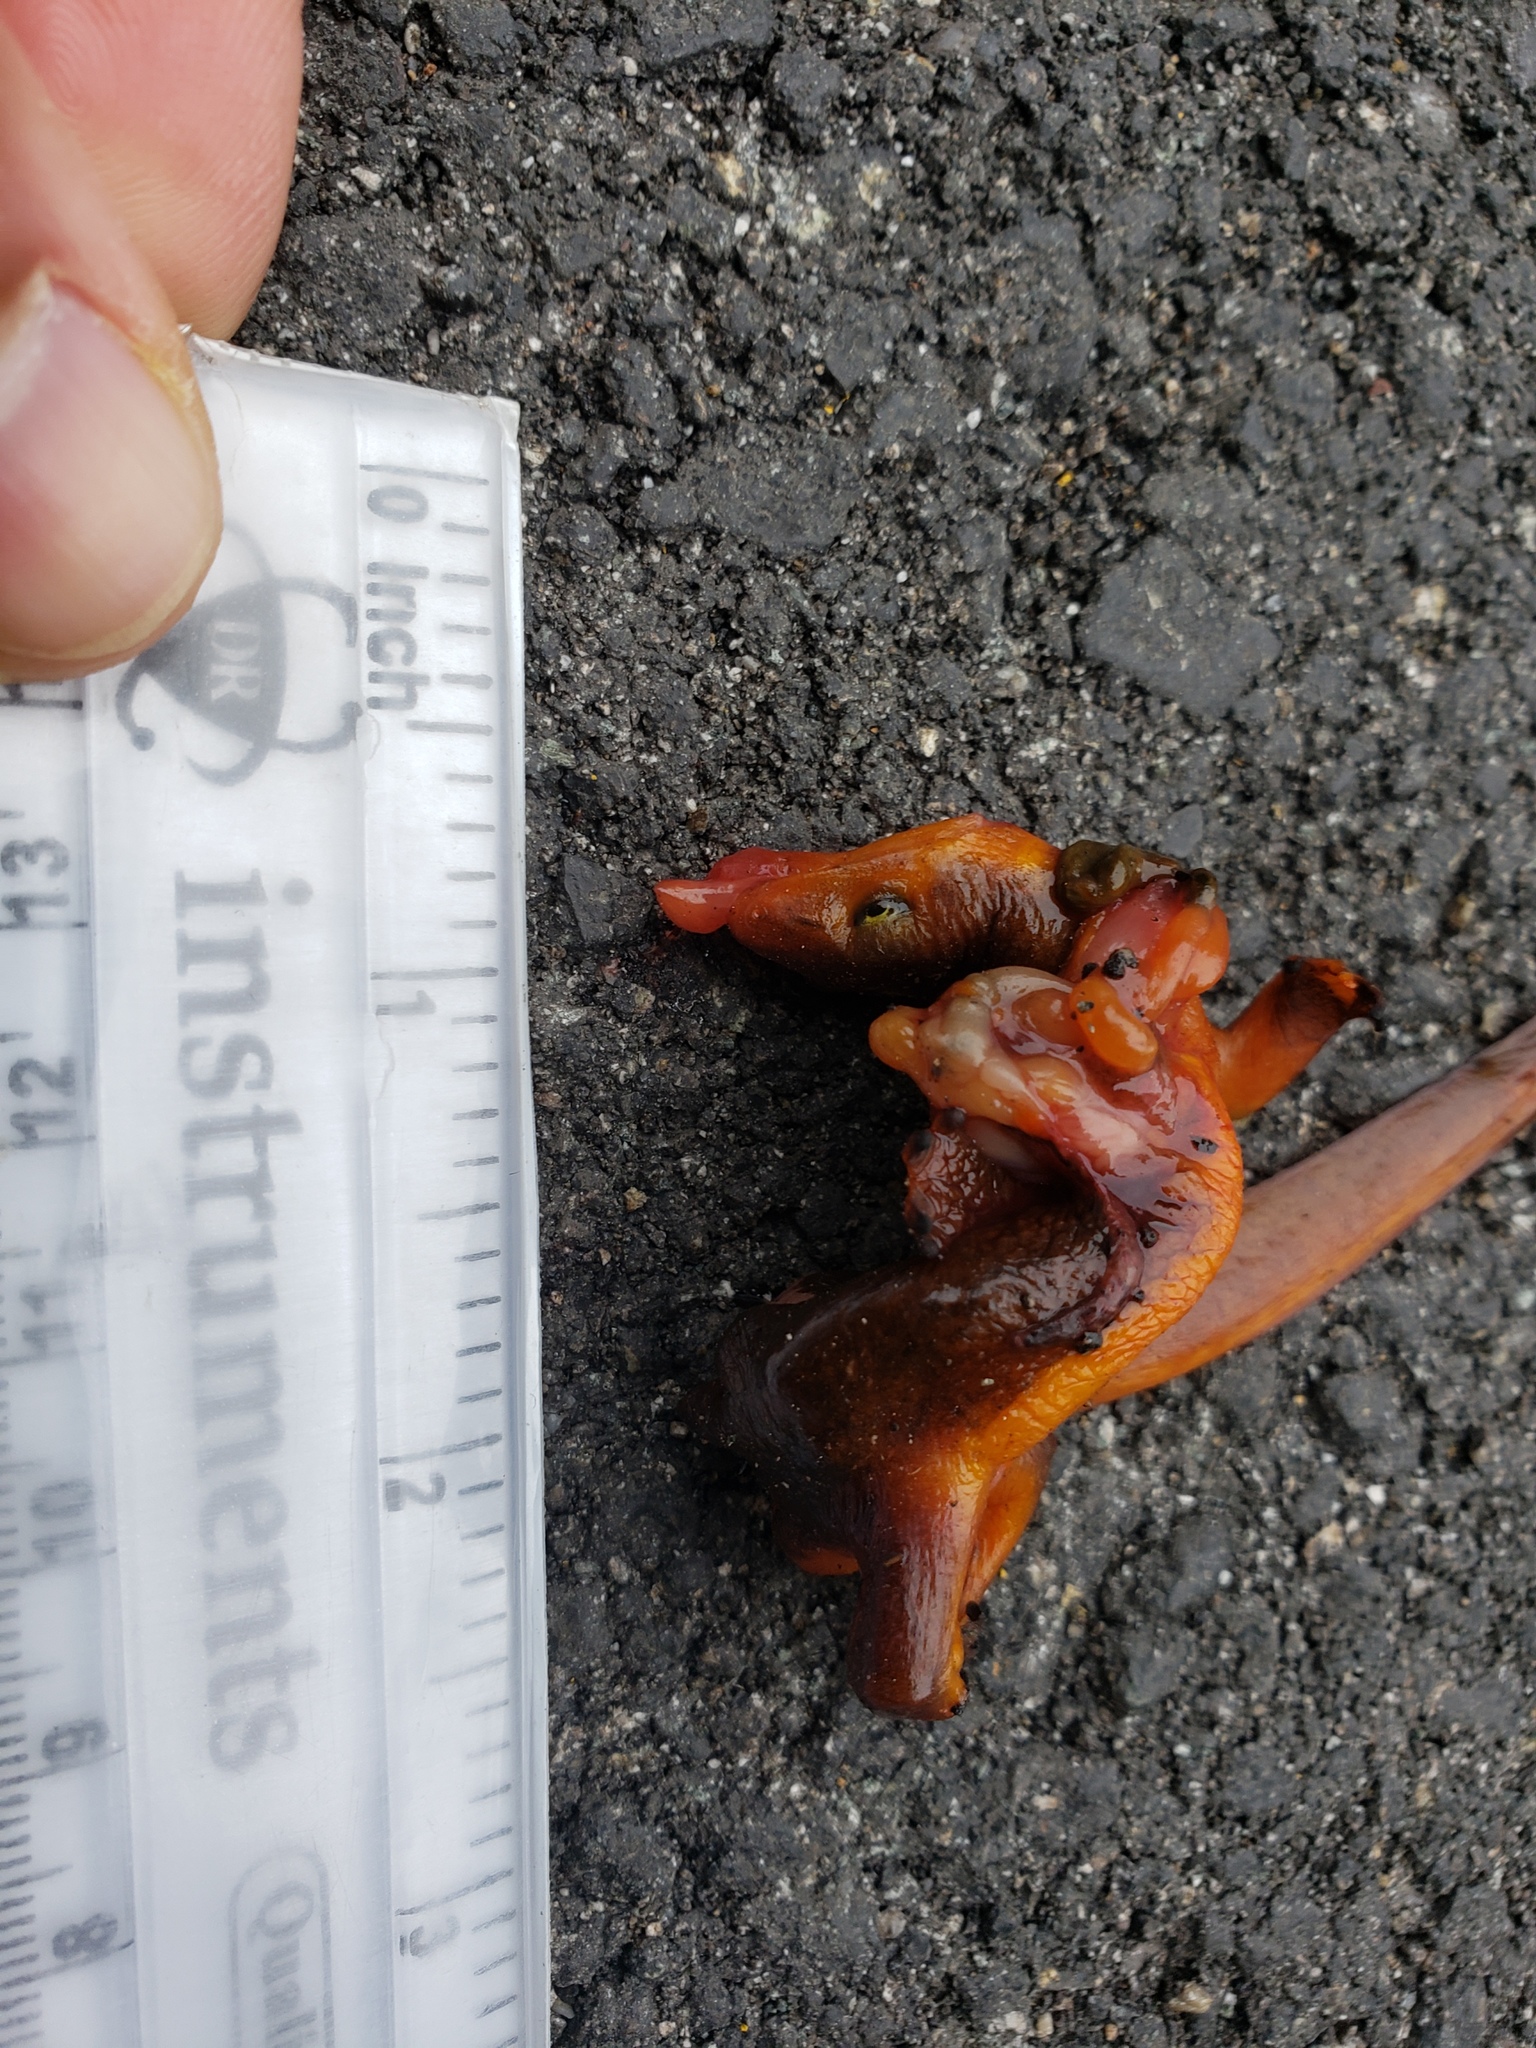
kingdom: Animalia
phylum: Chordata
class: Amphibia
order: Caudata
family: Salamandridae
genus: Taricha
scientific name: Taricha
